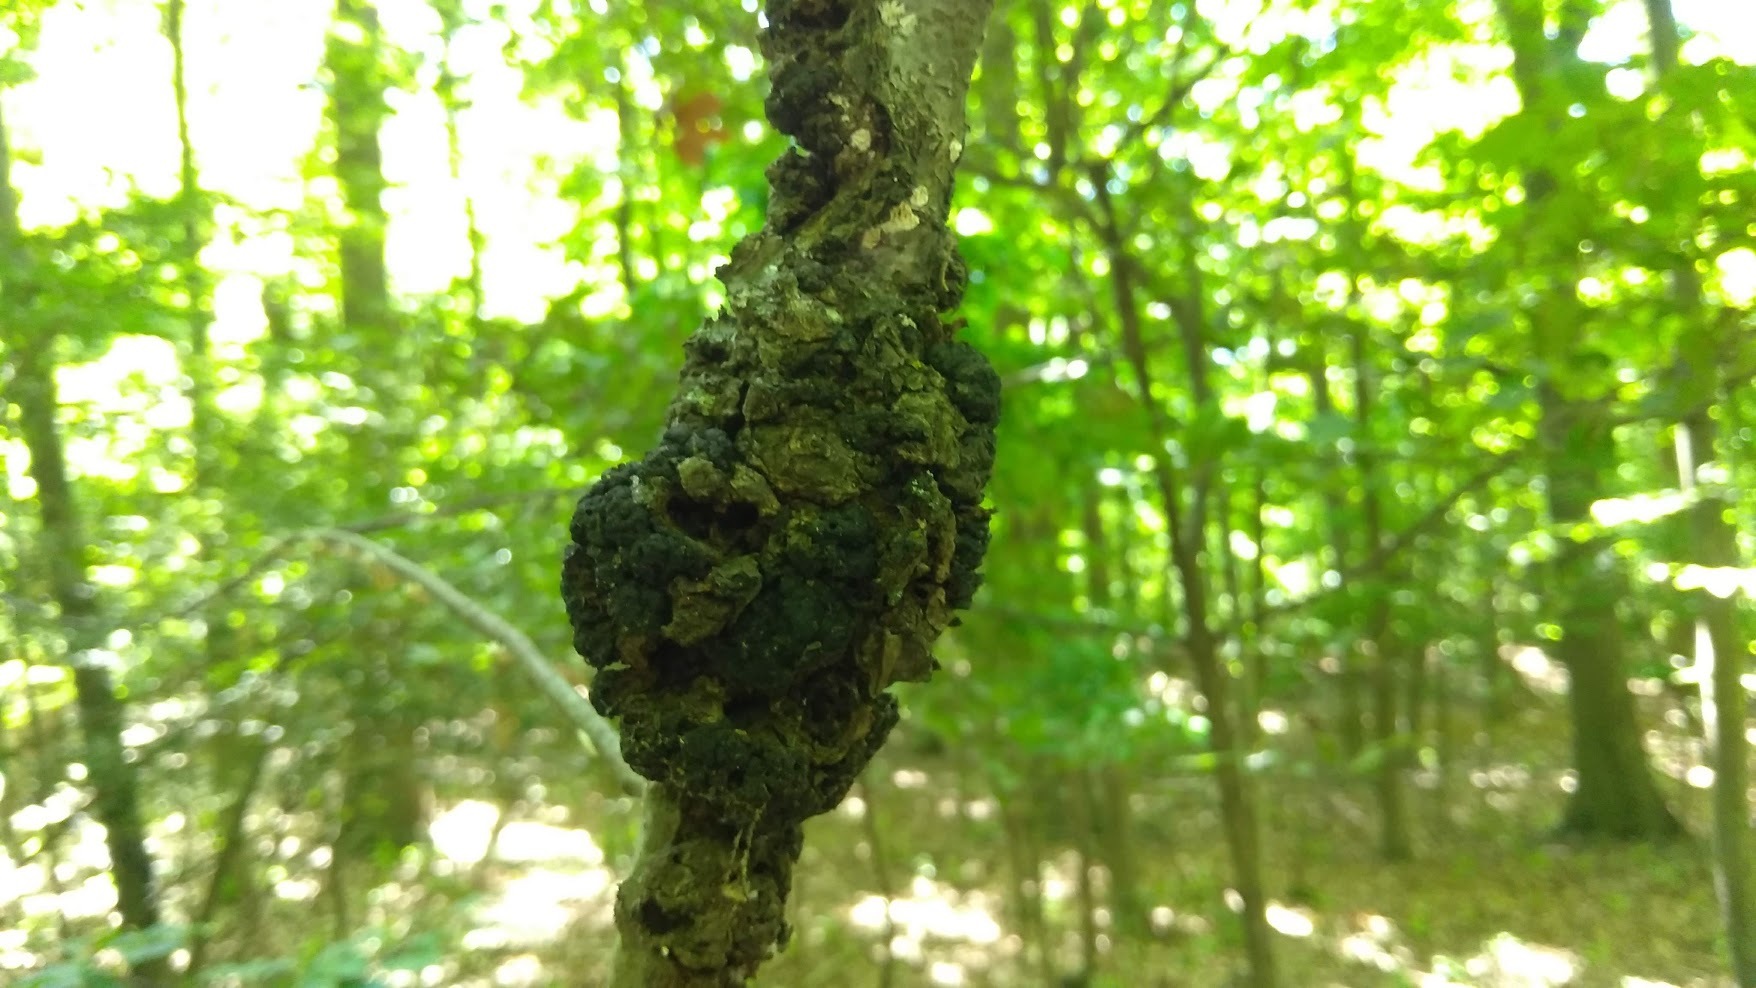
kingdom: Fungi
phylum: Ascomycota
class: Dothideomycetes
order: Venturiales
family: Venturiaceae
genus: Apiosporina
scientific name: Apiosporina morbosa
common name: Black knot
